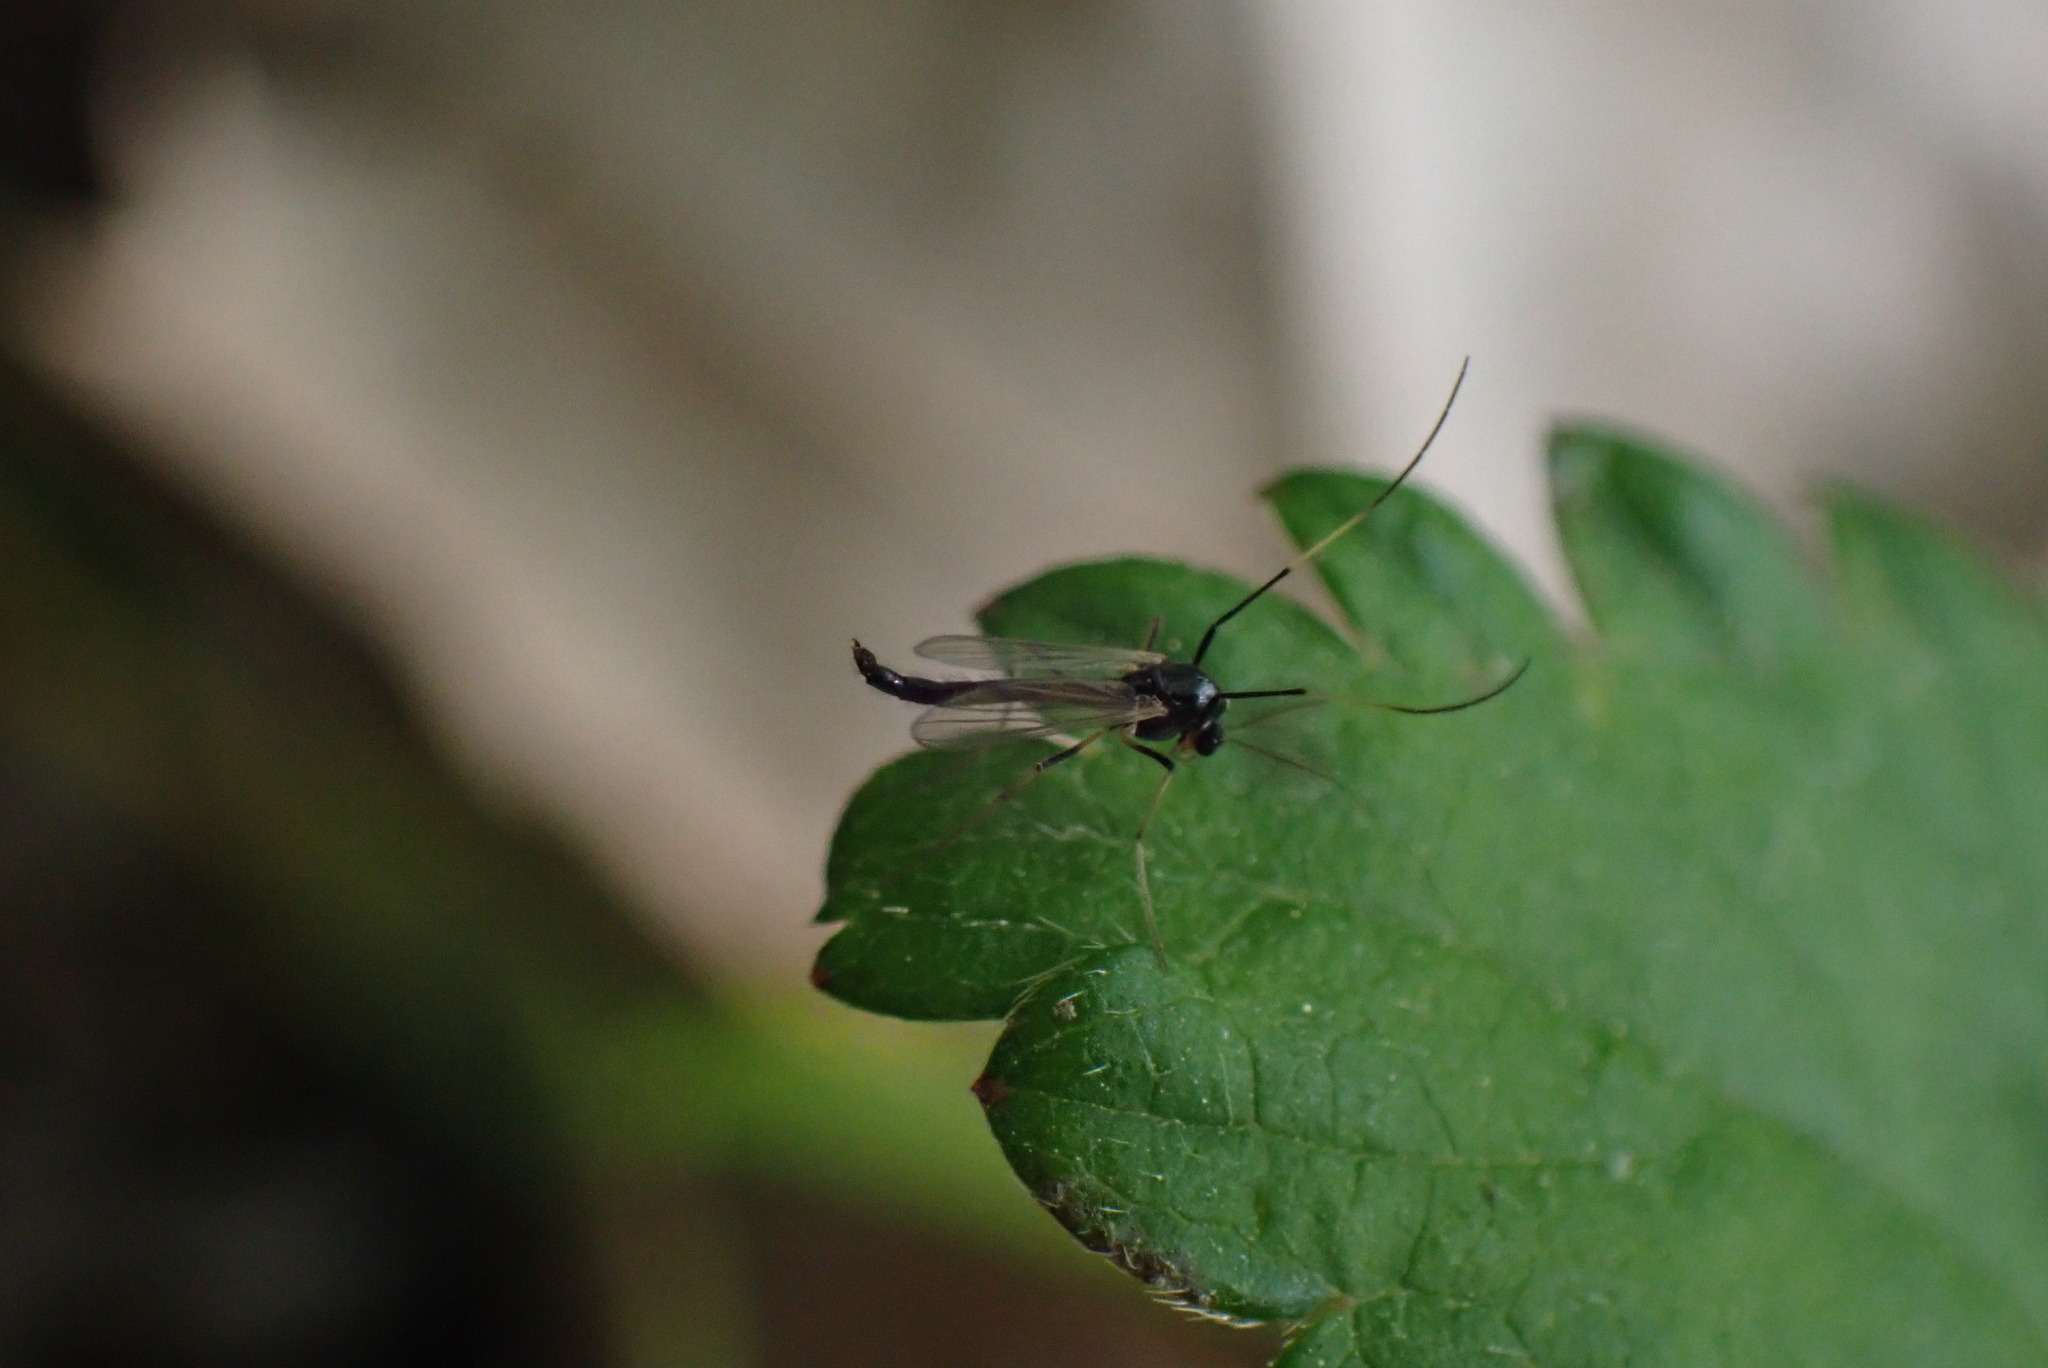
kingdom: Animalia
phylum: Arthropoda
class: Insecta
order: Diptera
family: Chironomidae
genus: Paratendipes
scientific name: Paratendipes albimanus
